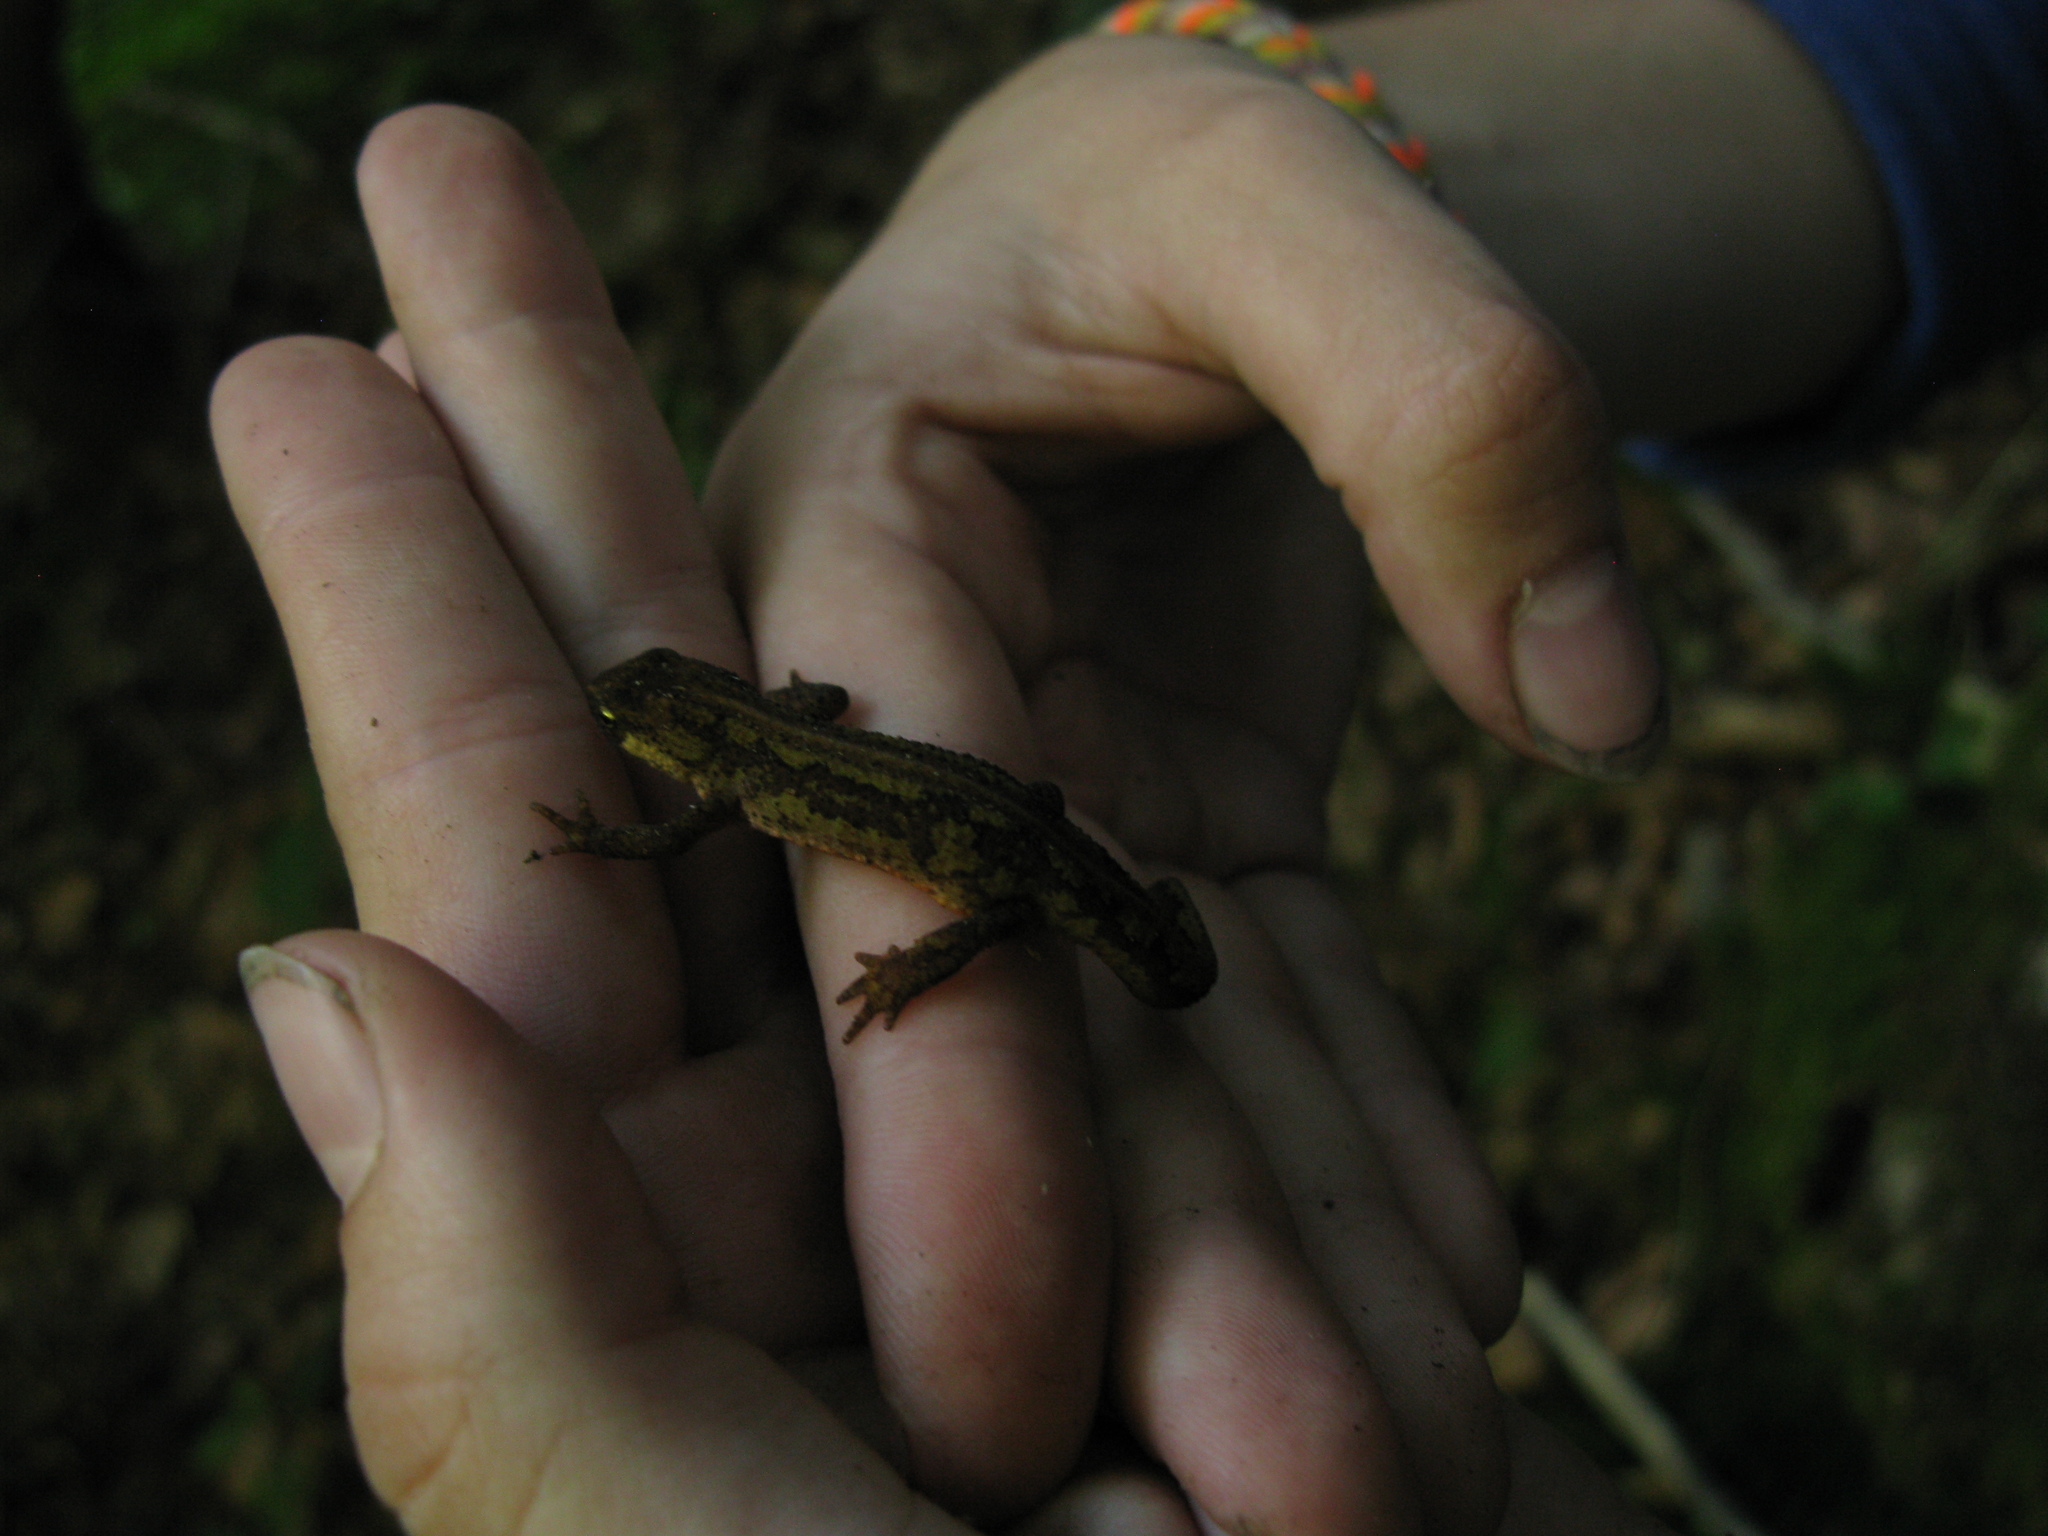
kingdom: Animalia
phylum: Chordata
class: Amphibia
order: Caudata
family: Salamandridae
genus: Lissotriton
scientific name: Lissotriton montandoni
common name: Carpathian newt
